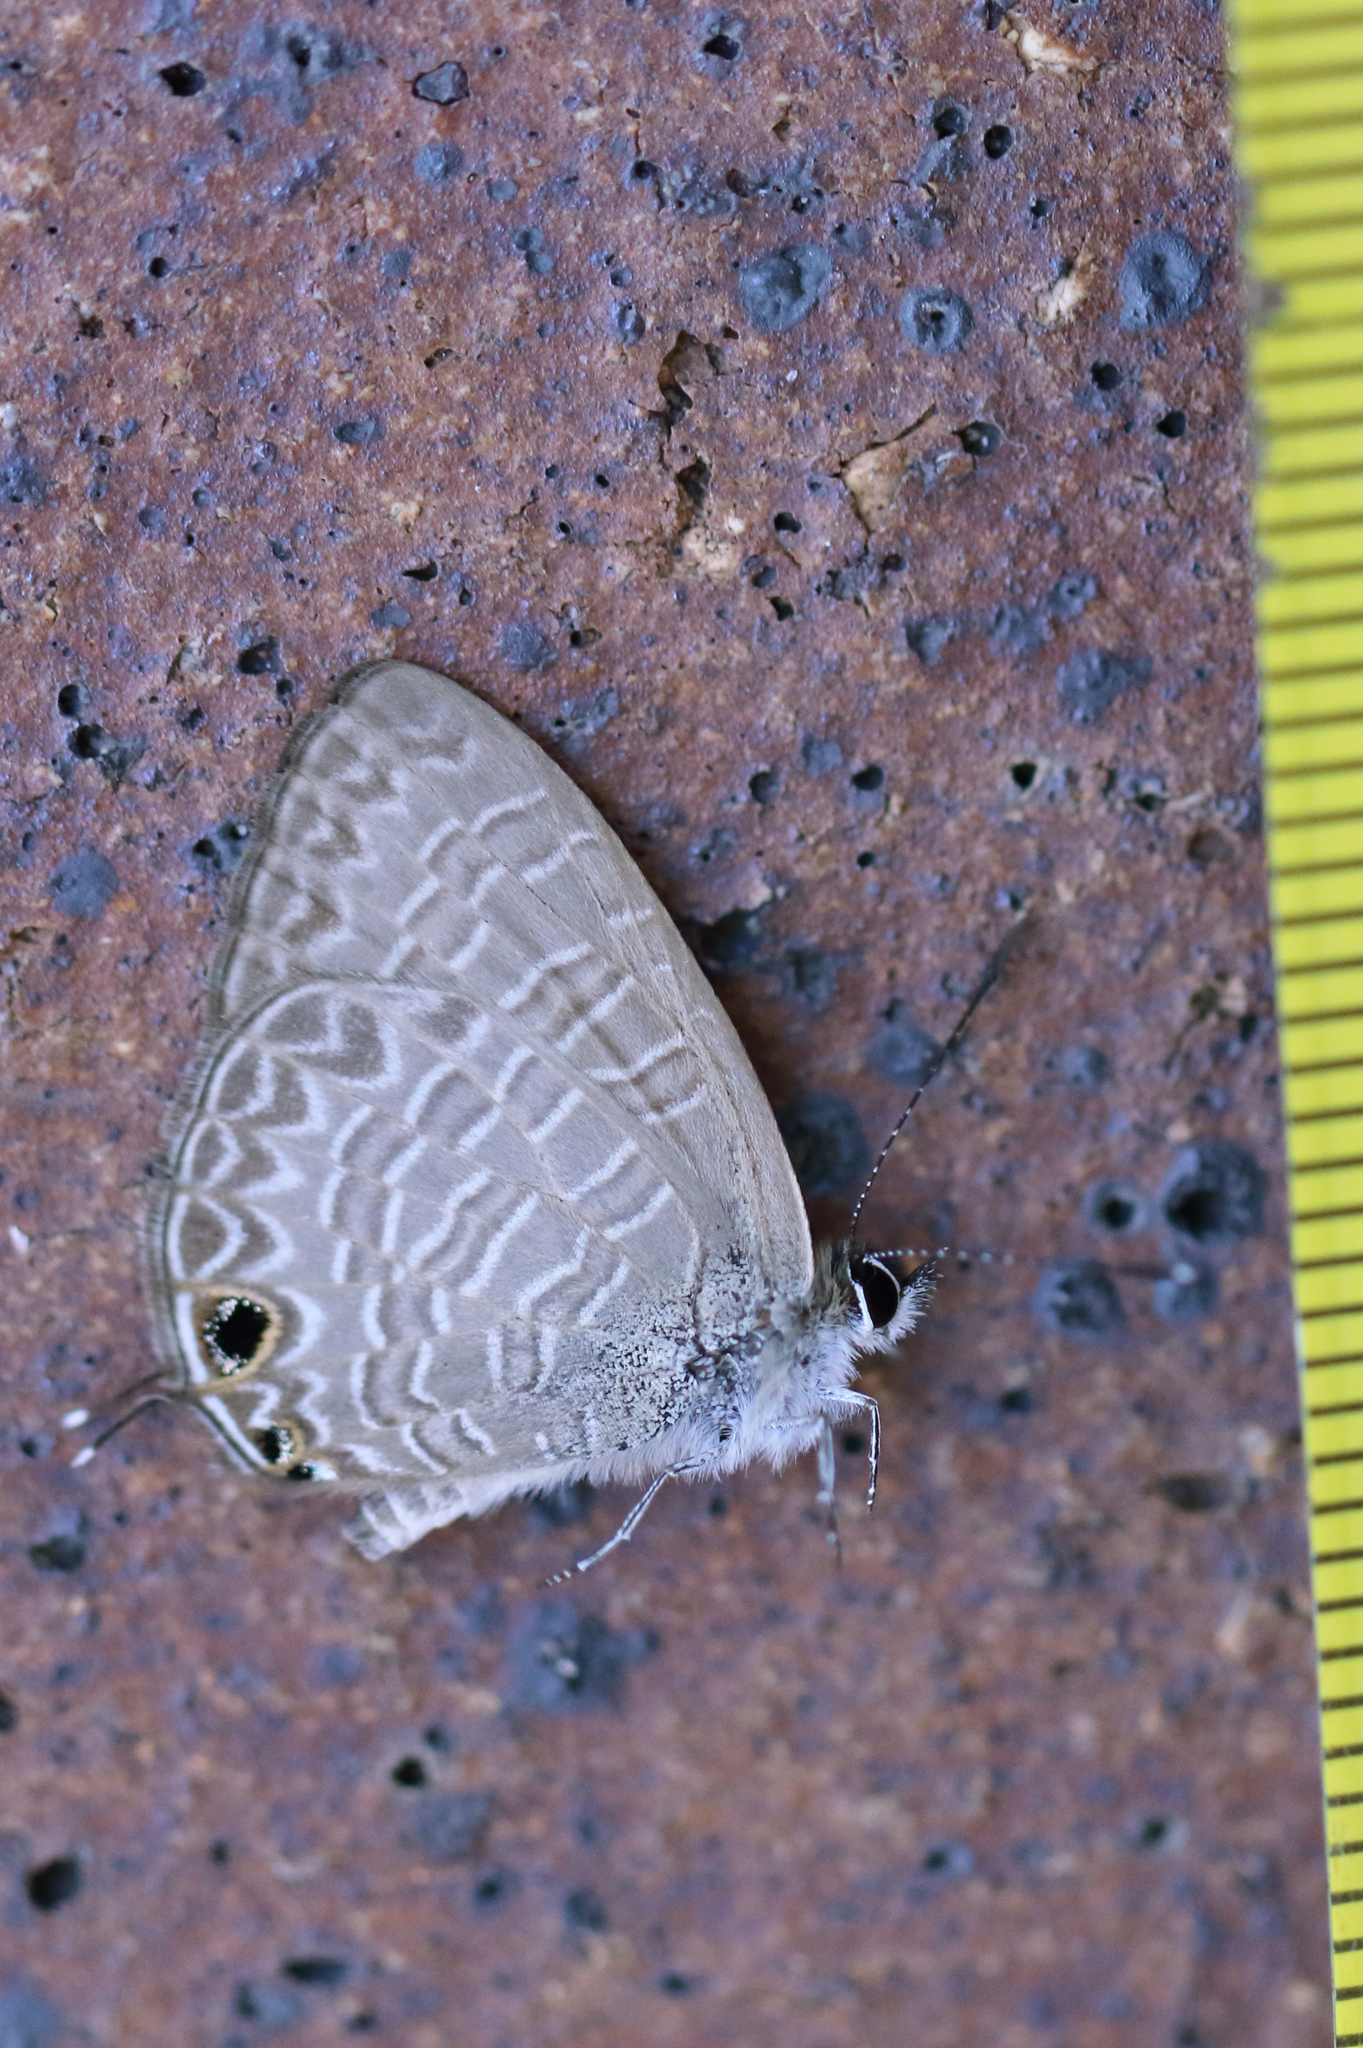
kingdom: Animalia
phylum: Arthropoda
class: Insecta
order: Lepidoptera
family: Lycaenidae
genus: Nacaduba
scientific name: Nacaduba berenice
